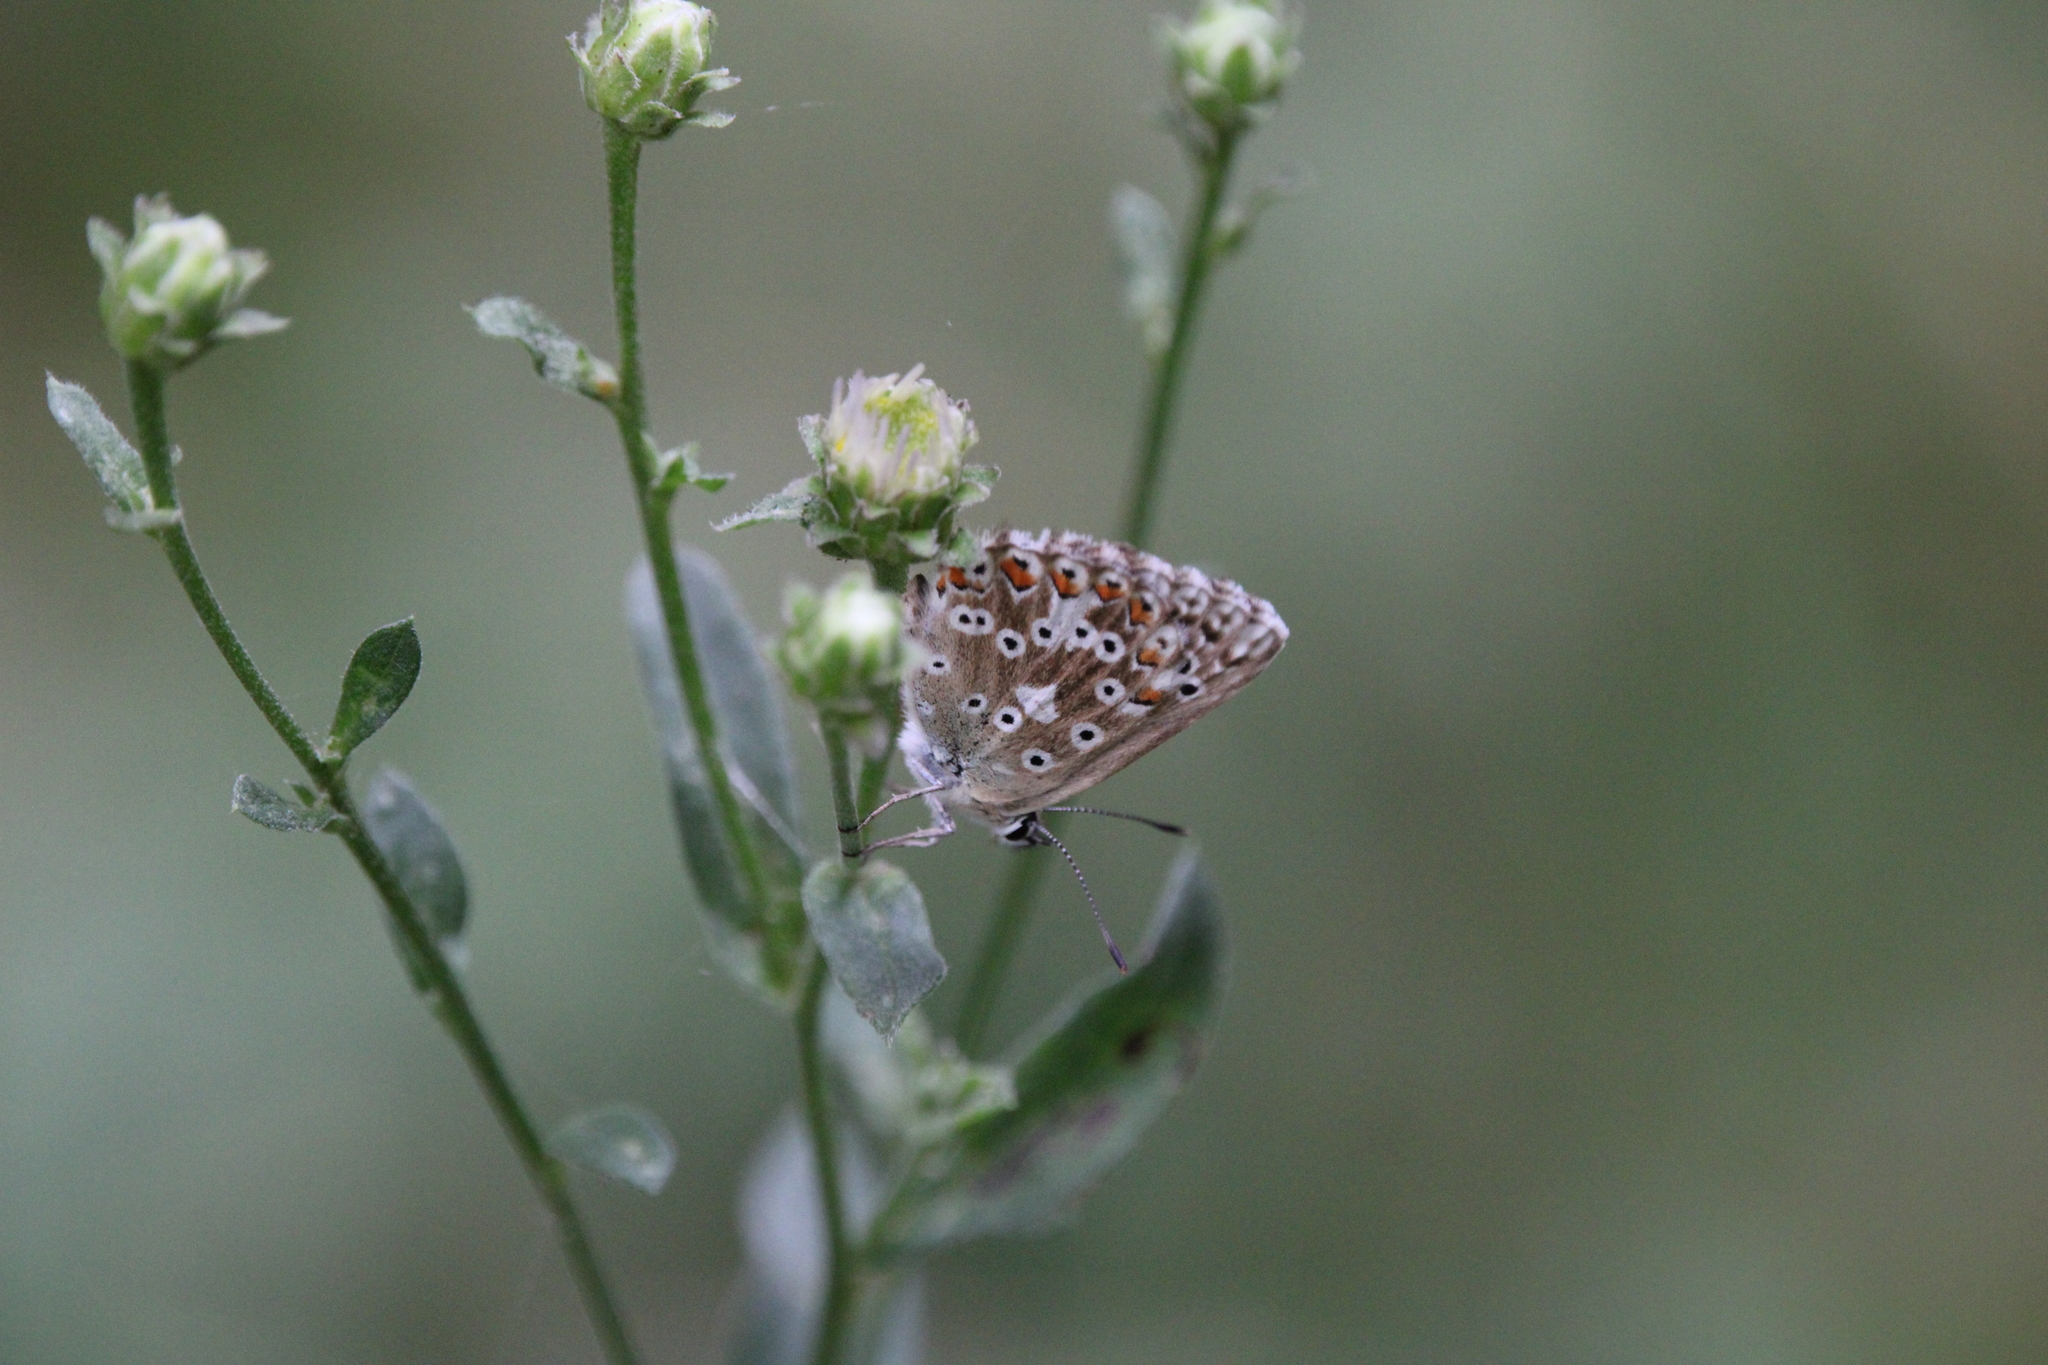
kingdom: Animalia
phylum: Arthropoda
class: Insecta
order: Lepidoptera
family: Lycaenidae
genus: Lysandra
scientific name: Lysandra coridon
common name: Chalkhill blue
